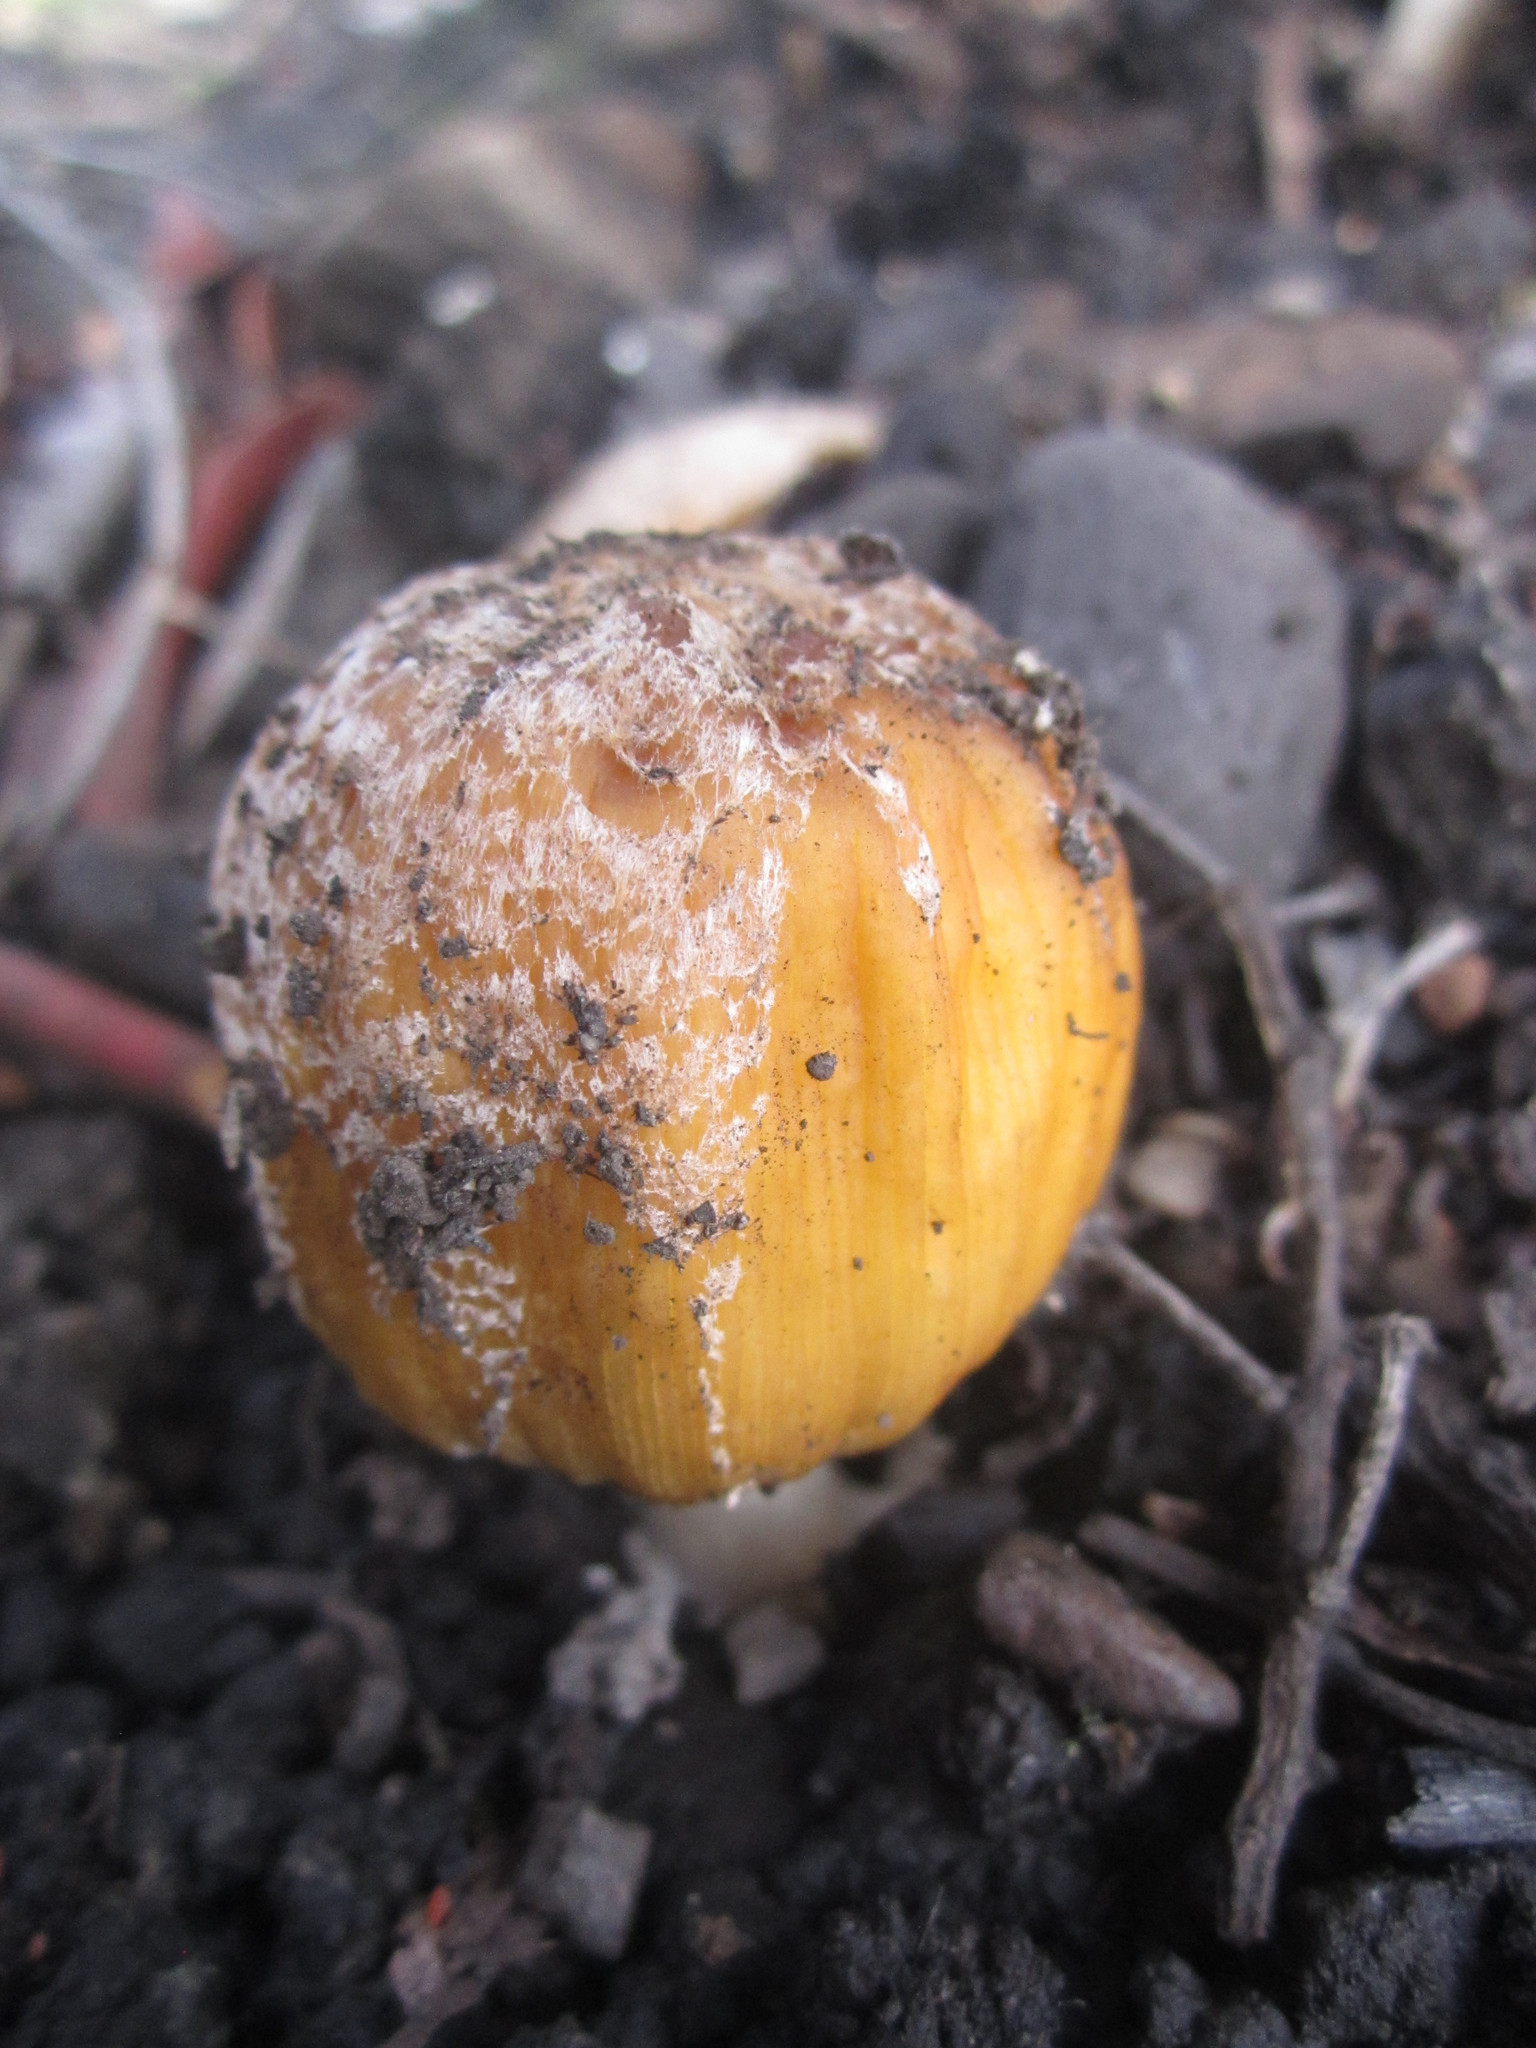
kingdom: Fungi
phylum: Basidiomycota
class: Agaricomycetes
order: Agaricales
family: Psathyrellaceae
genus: Coprinellus
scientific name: Coprinellus flocculosus
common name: Flocculose inkcap
